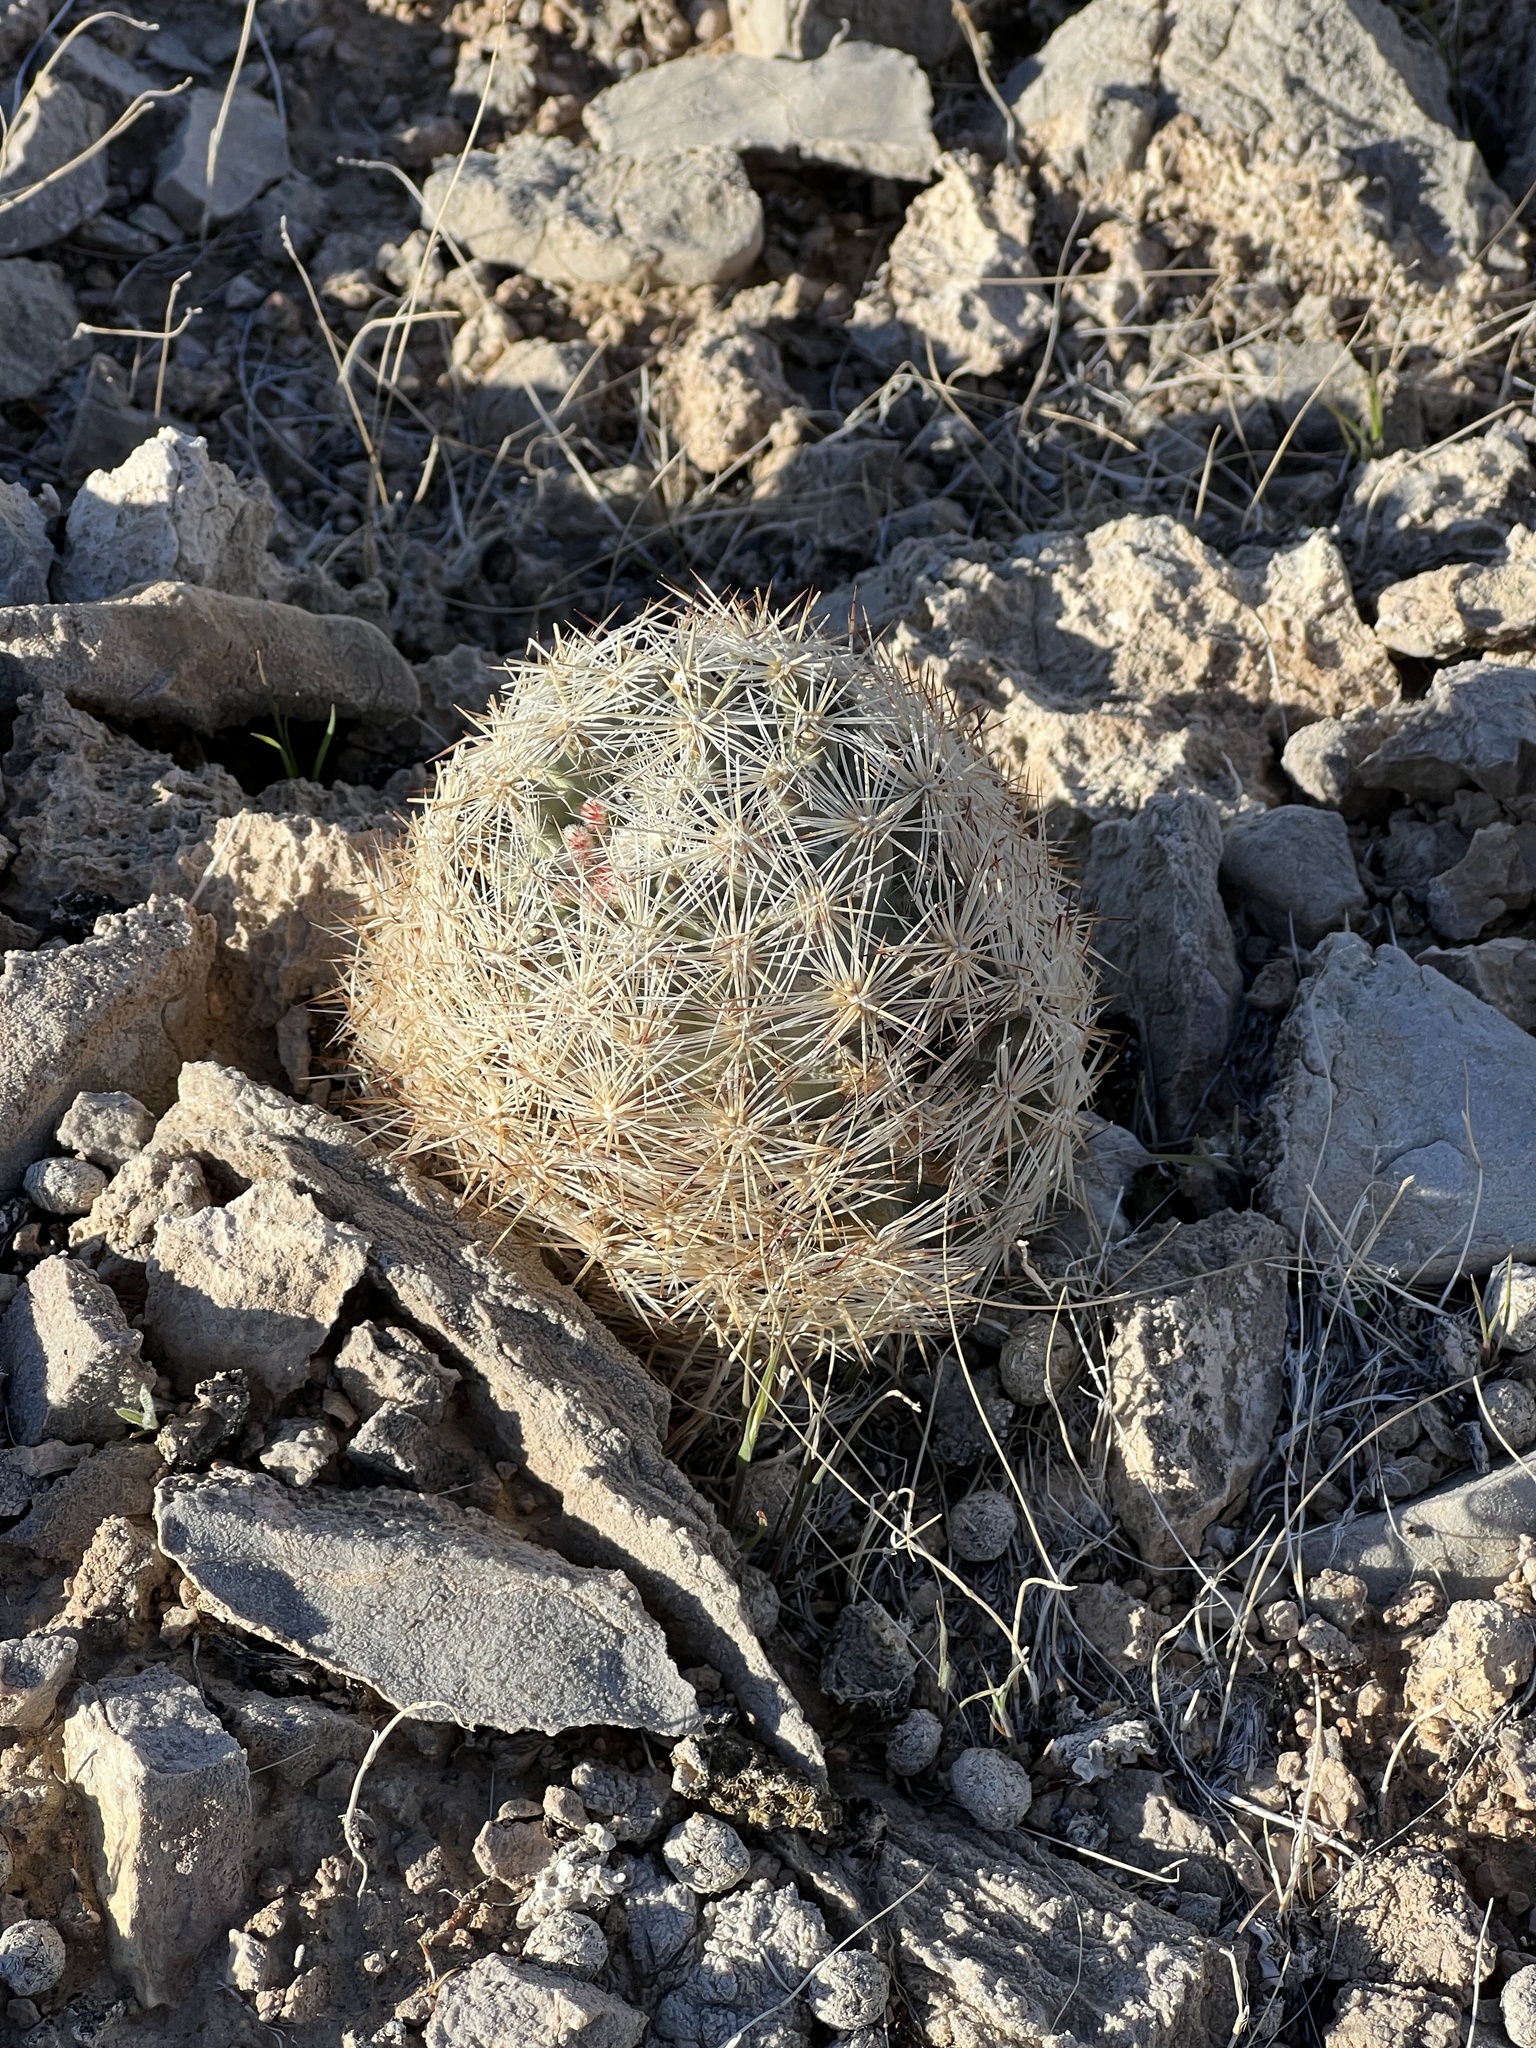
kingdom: Plantae
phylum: Tracheophyta
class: Magnoliopsida
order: Caryophyllales
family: Cactaceae
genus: Pelecyphora
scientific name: Pelecyphora dasyacantha
